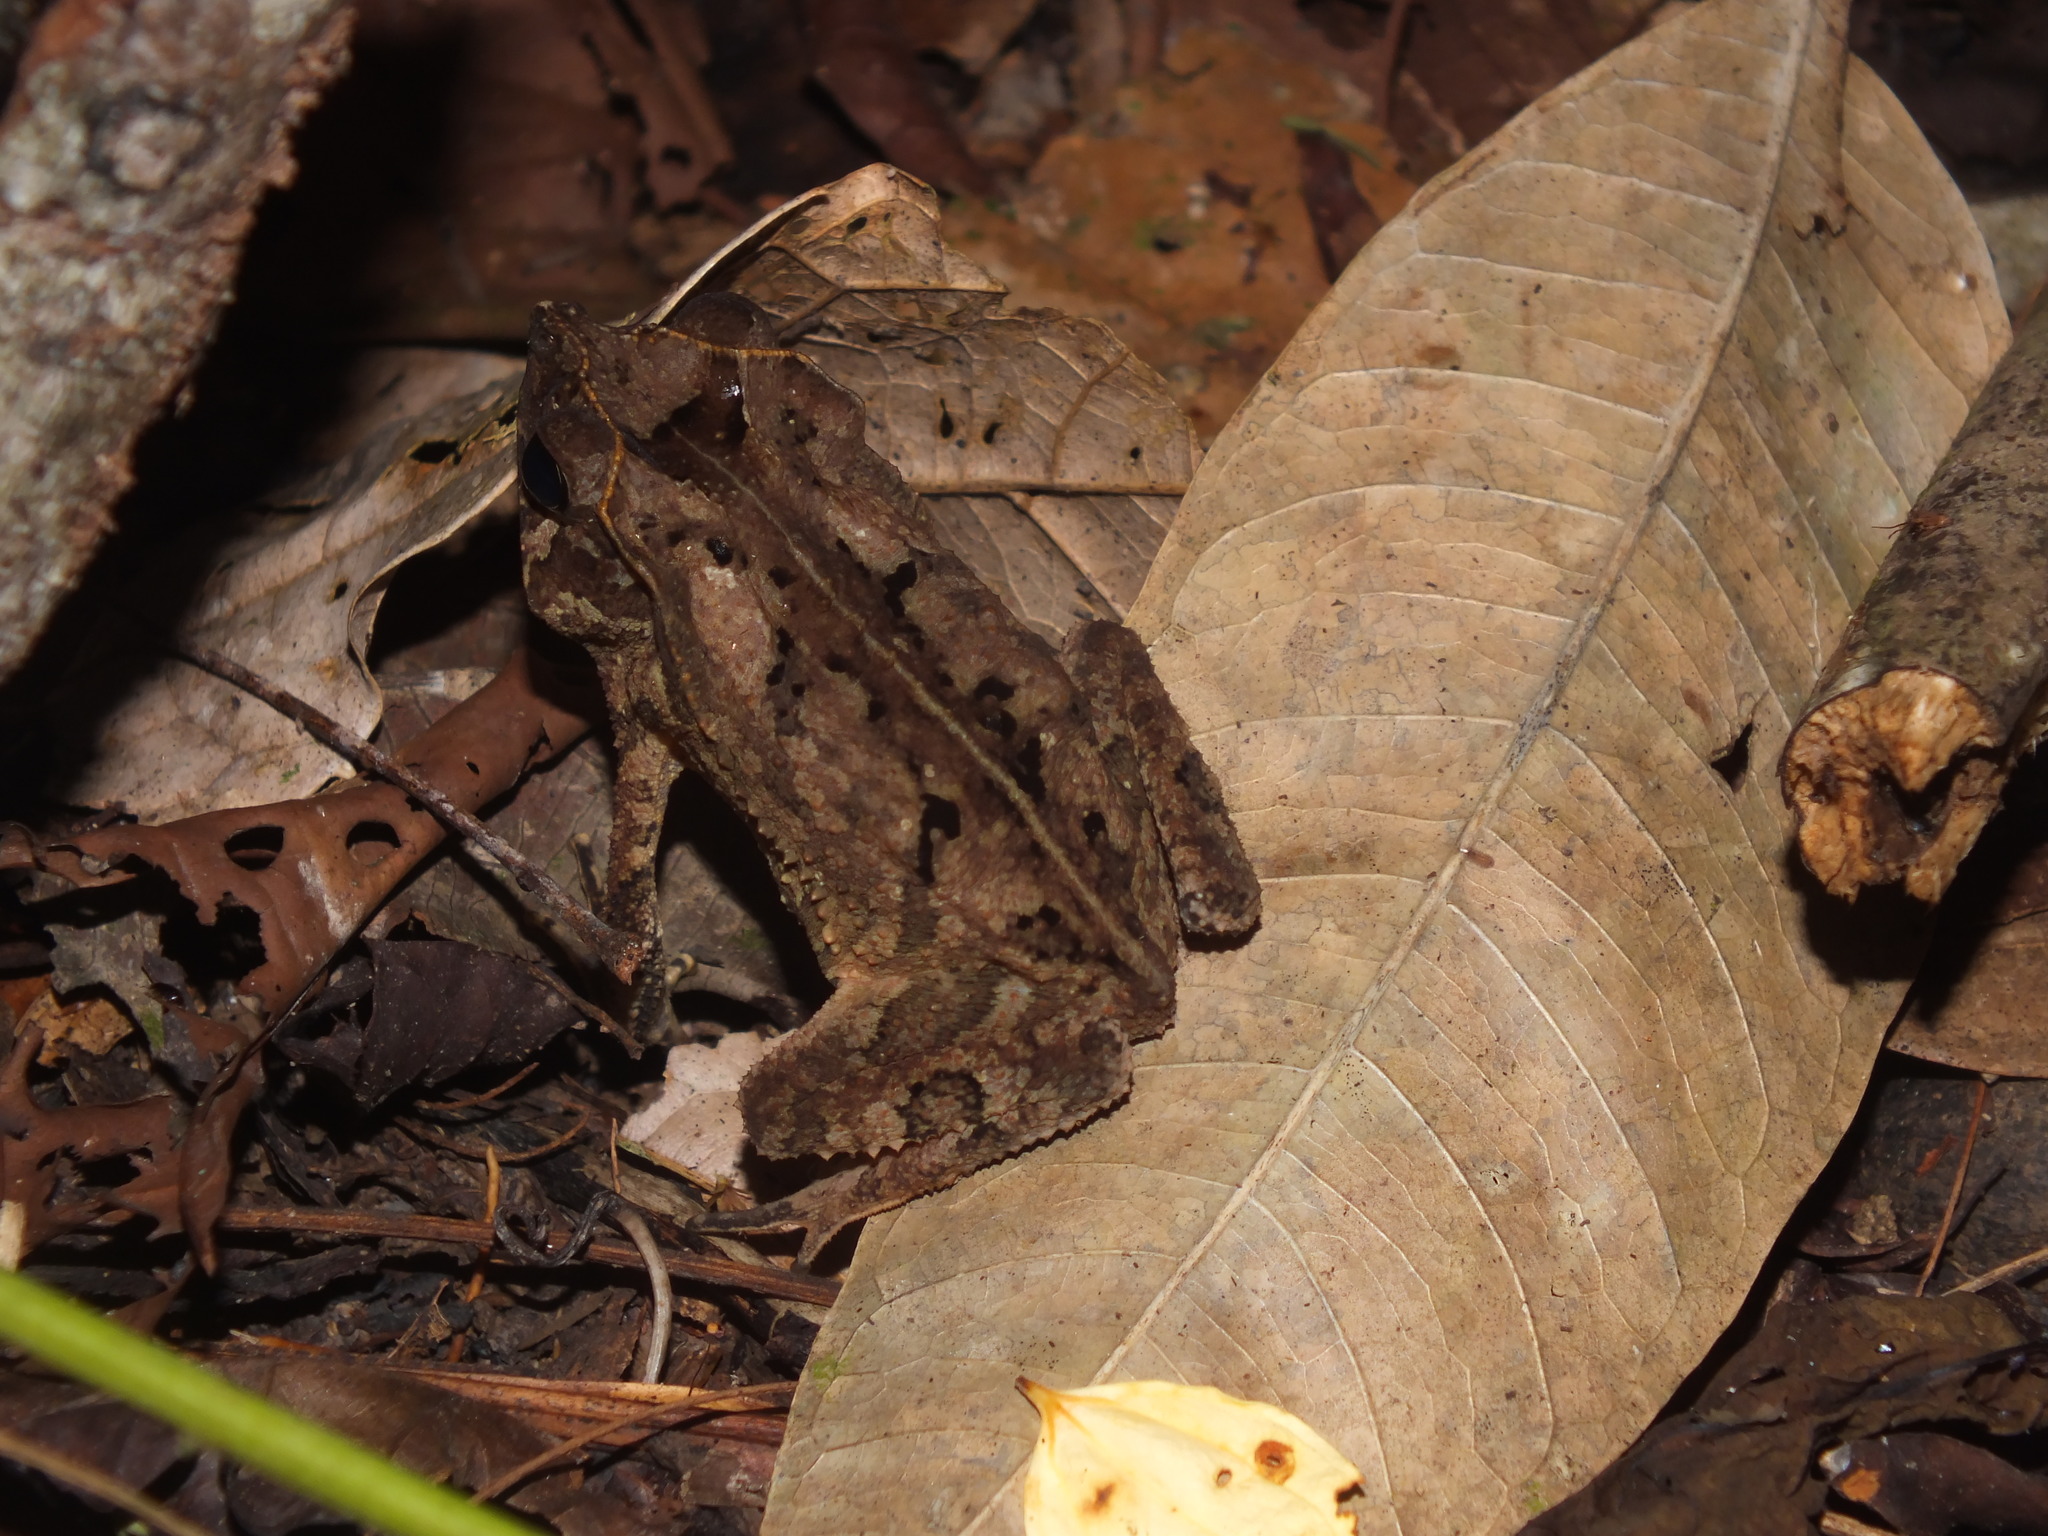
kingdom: Animalia
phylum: Chordata
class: Amphibia
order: Anura
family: Bufonidae
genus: Rhinella
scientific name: Rhinella margaritifera
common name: Mitred toad
